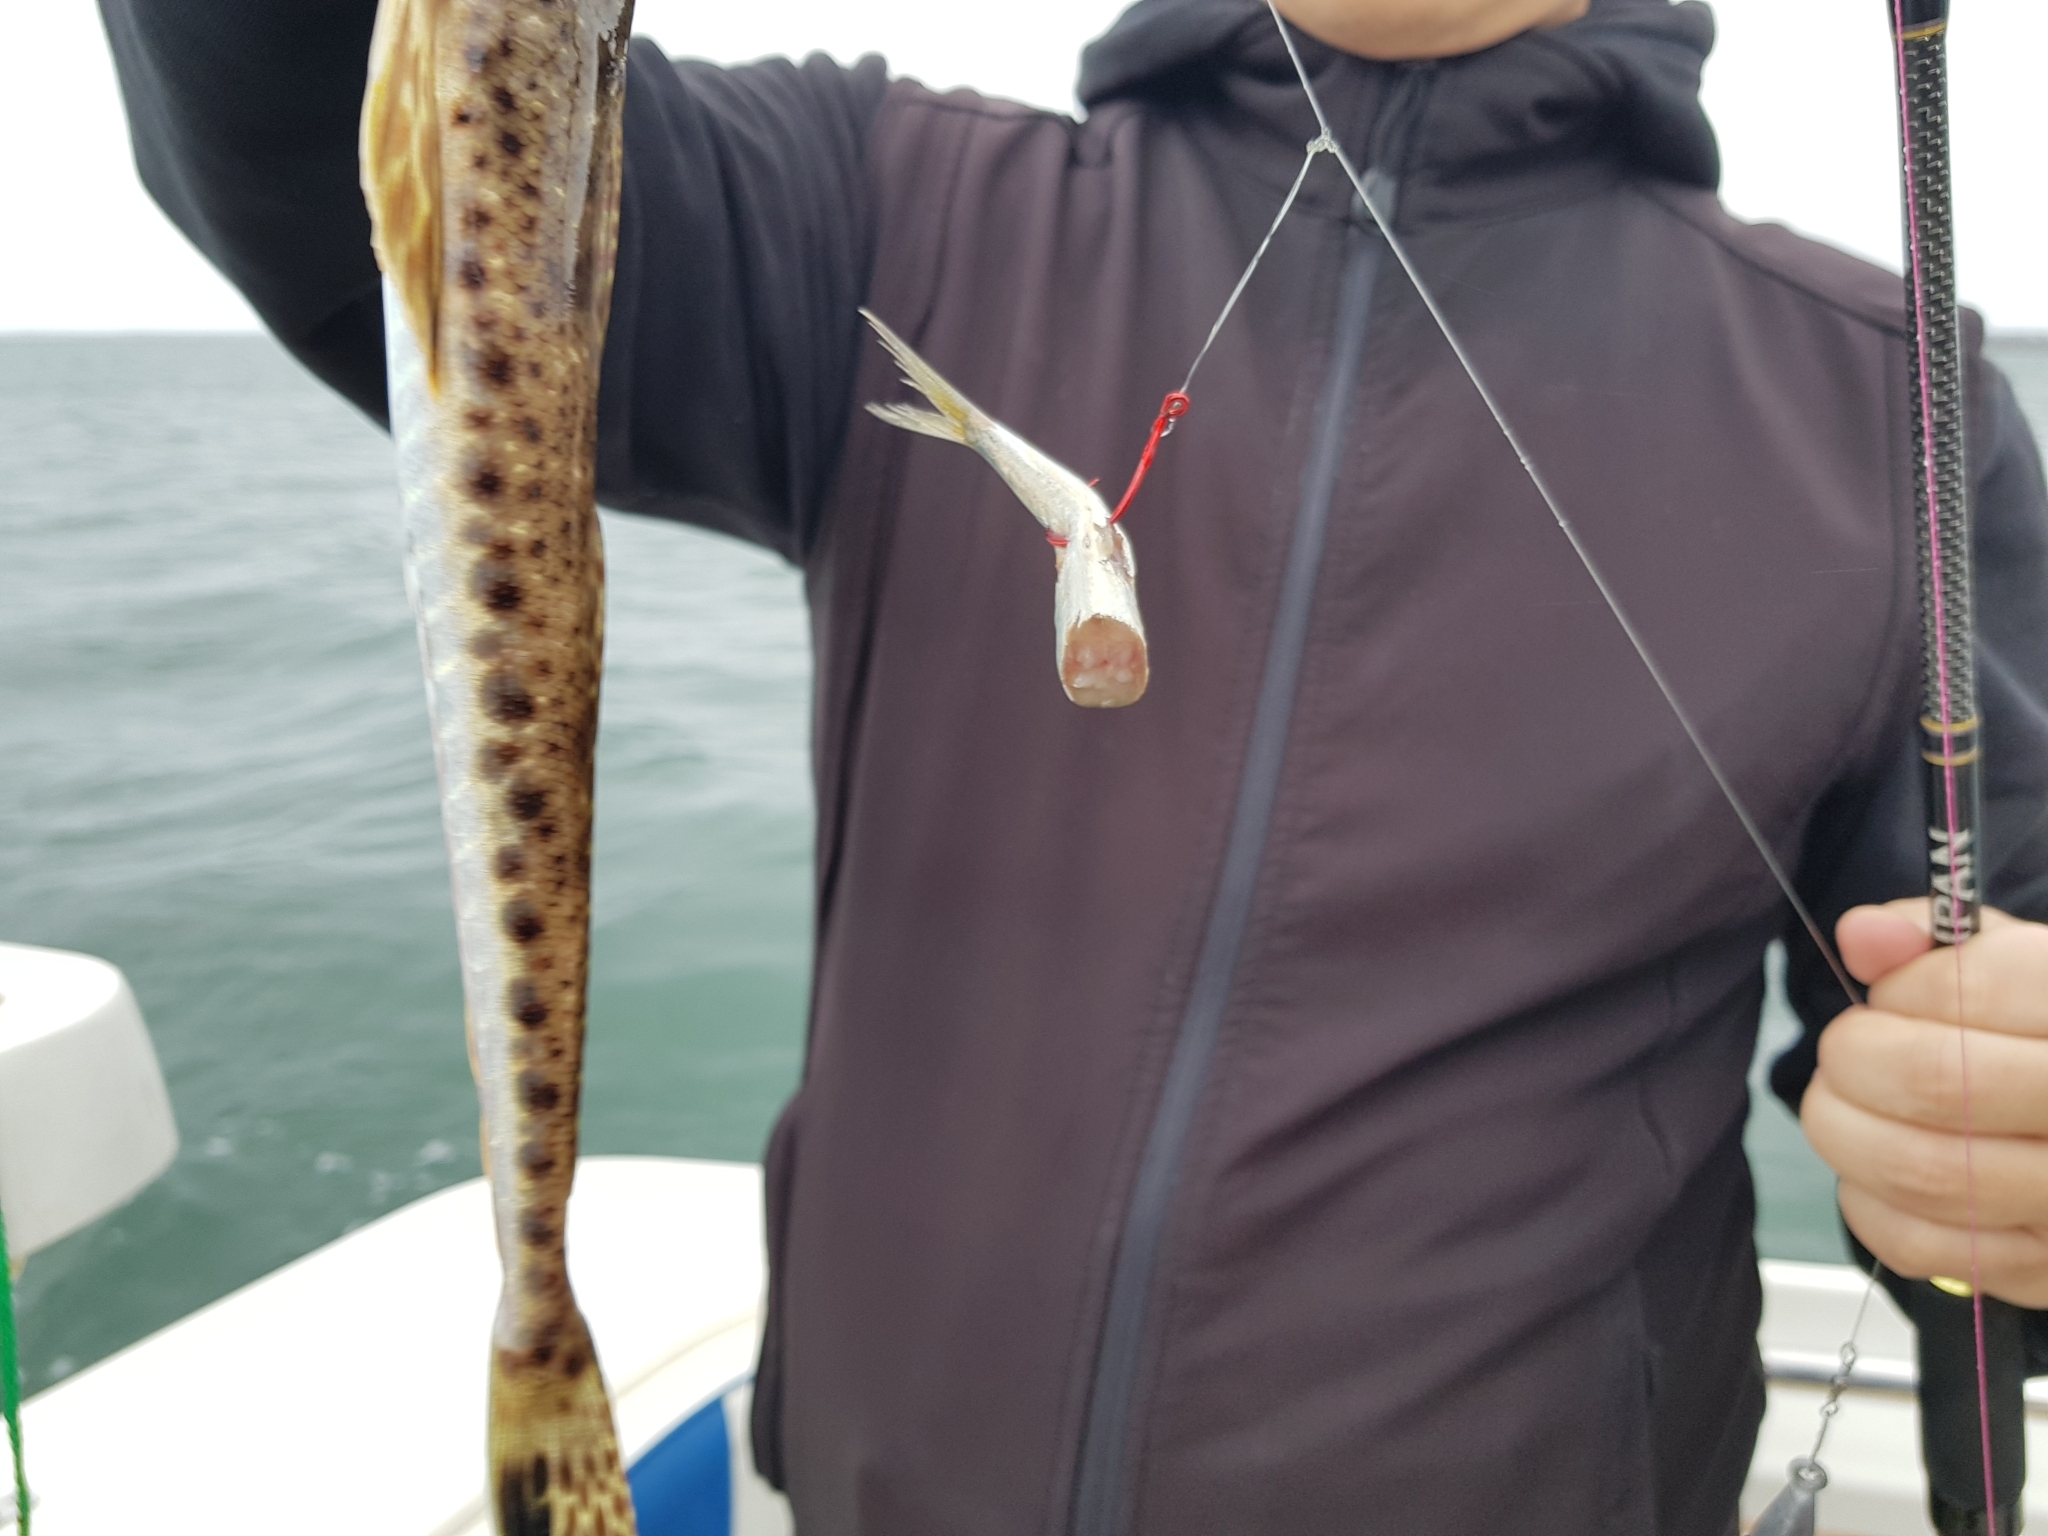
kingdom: Animalia
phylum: Chordata
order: Scorpaeniformes
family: Platycephalidae
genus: Platycephalus
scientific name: Platycephalus bassensis
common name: Sand flathead
